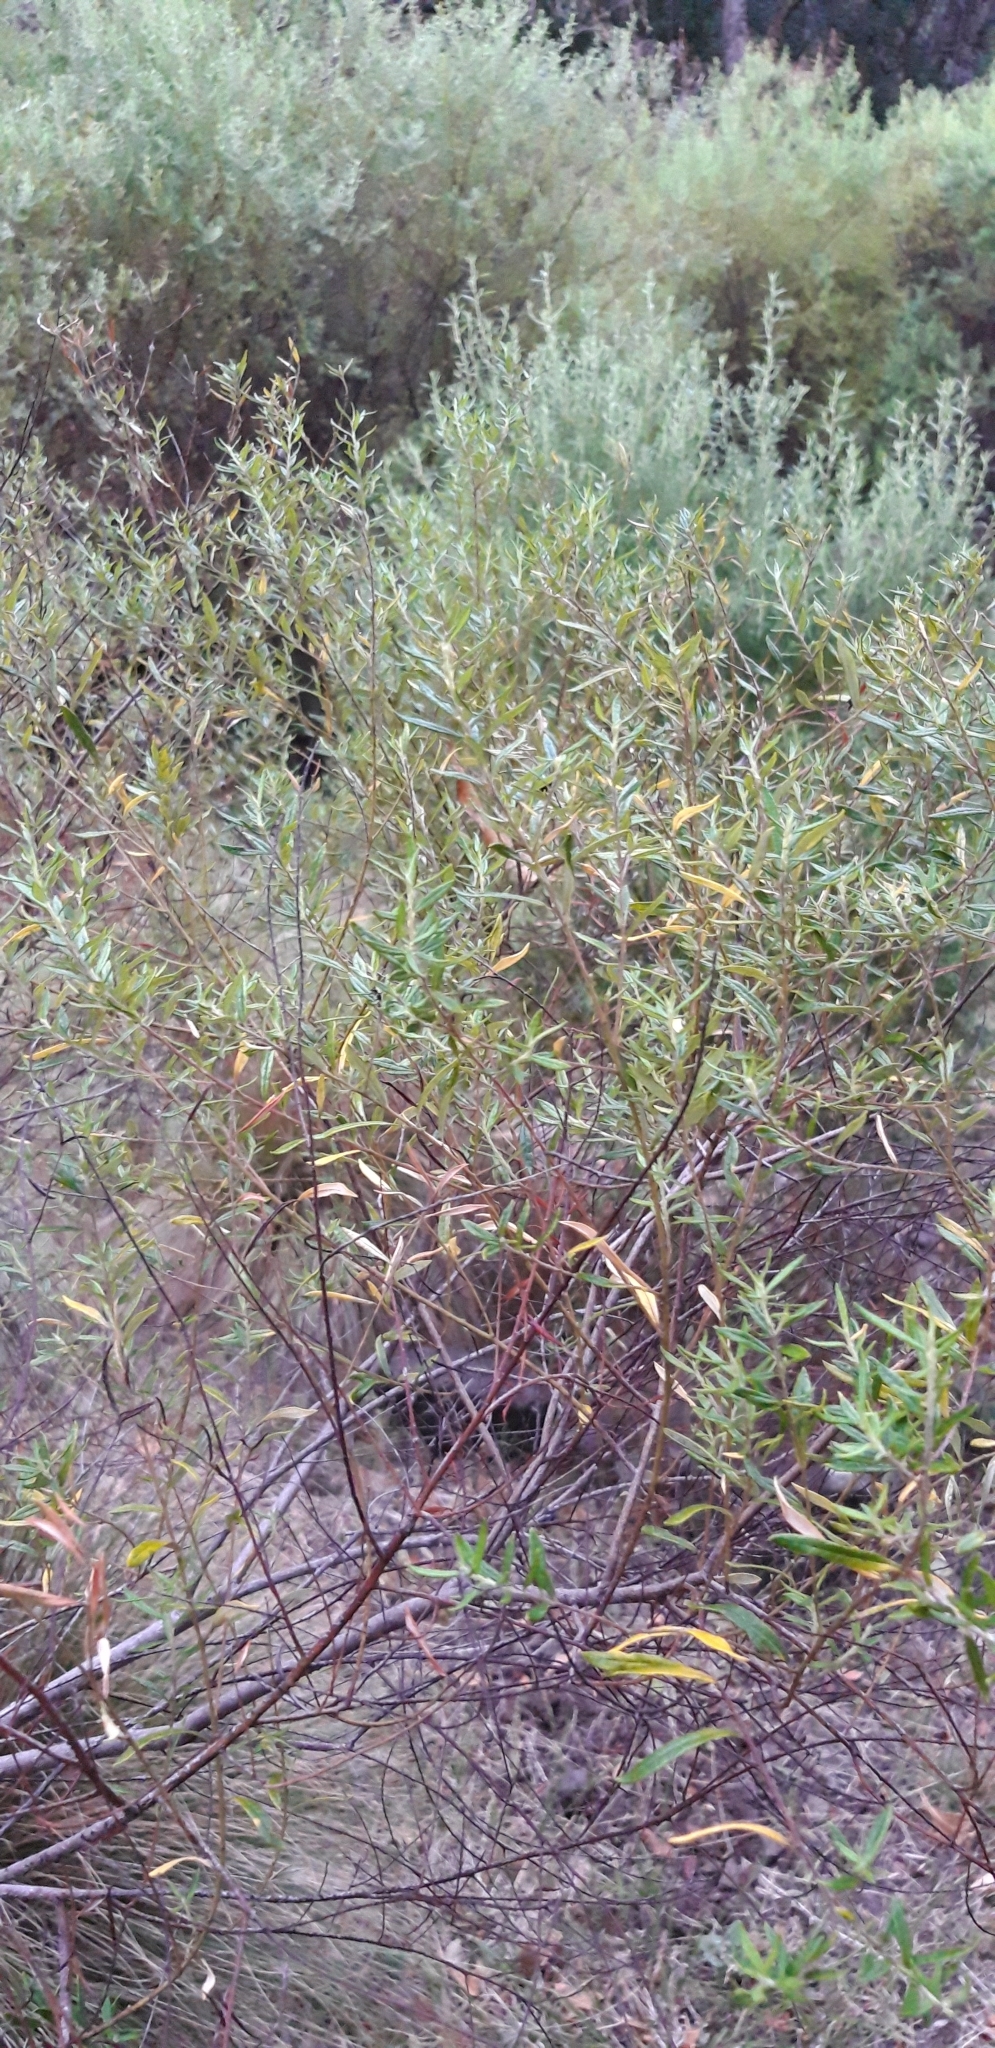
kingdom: Plantae
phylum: Tracheophyta
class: Magnoliopsida
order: Rosales
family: Rhamnaceae
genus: Phylica
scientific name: Phylica polifolia
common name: Rosemary
